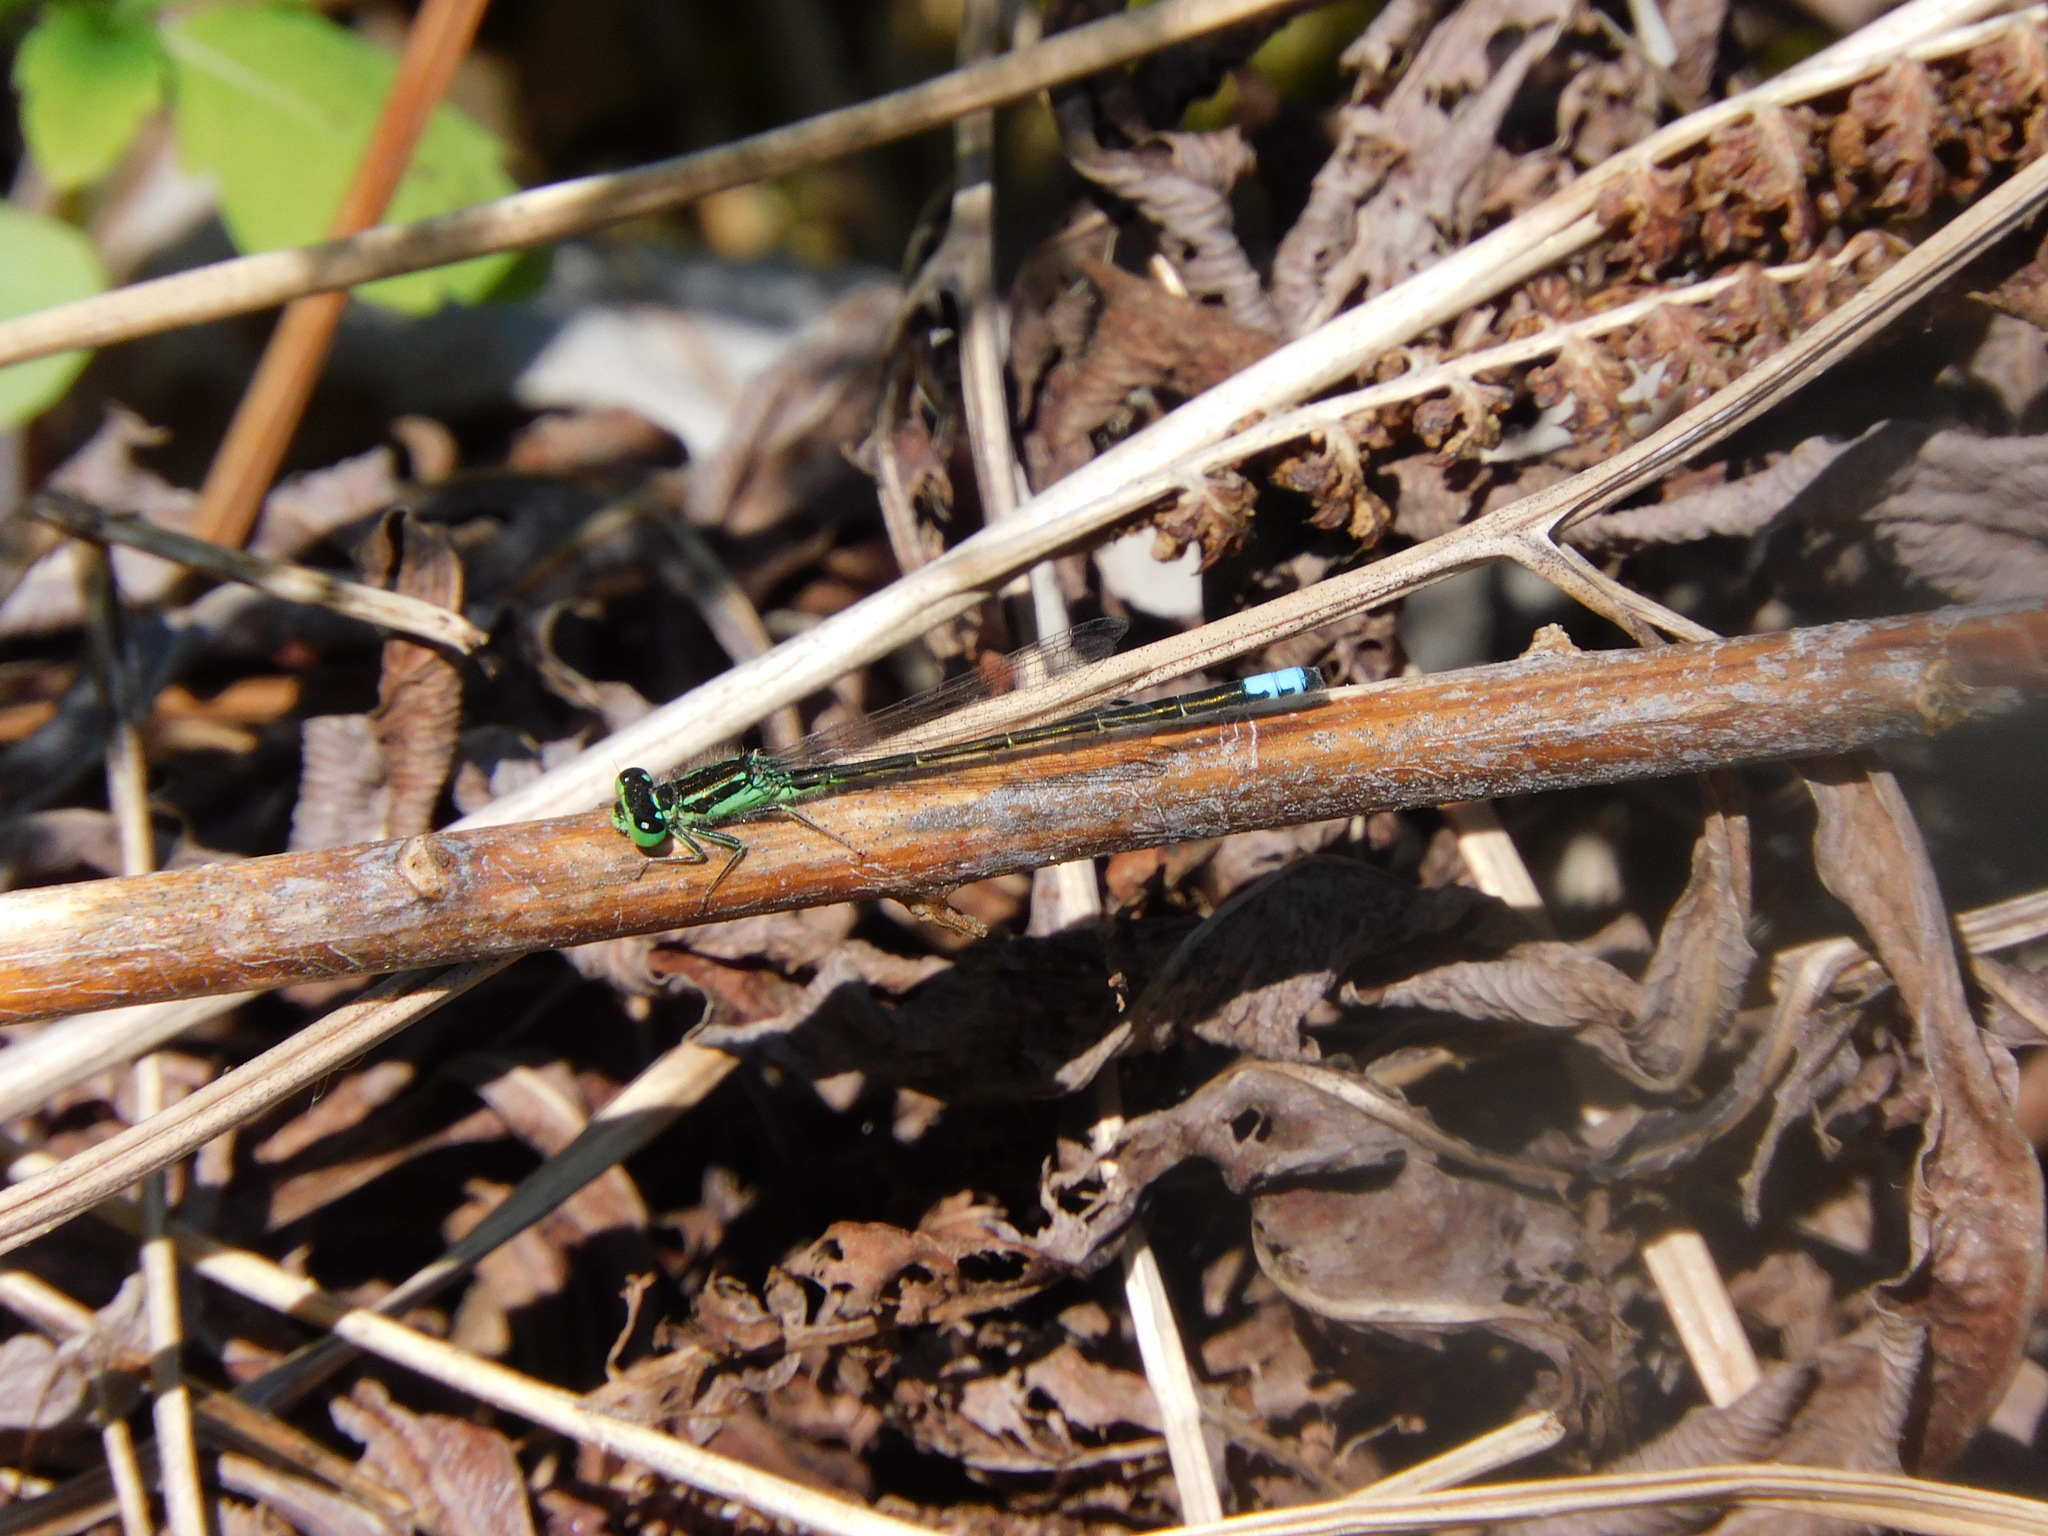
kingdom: Animalia
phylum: Arthropoda
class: Insecta
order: Odonata
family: Coenagrionidae
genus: Ischnura
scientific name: Ischnura verticalis
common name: Eastern forktail
